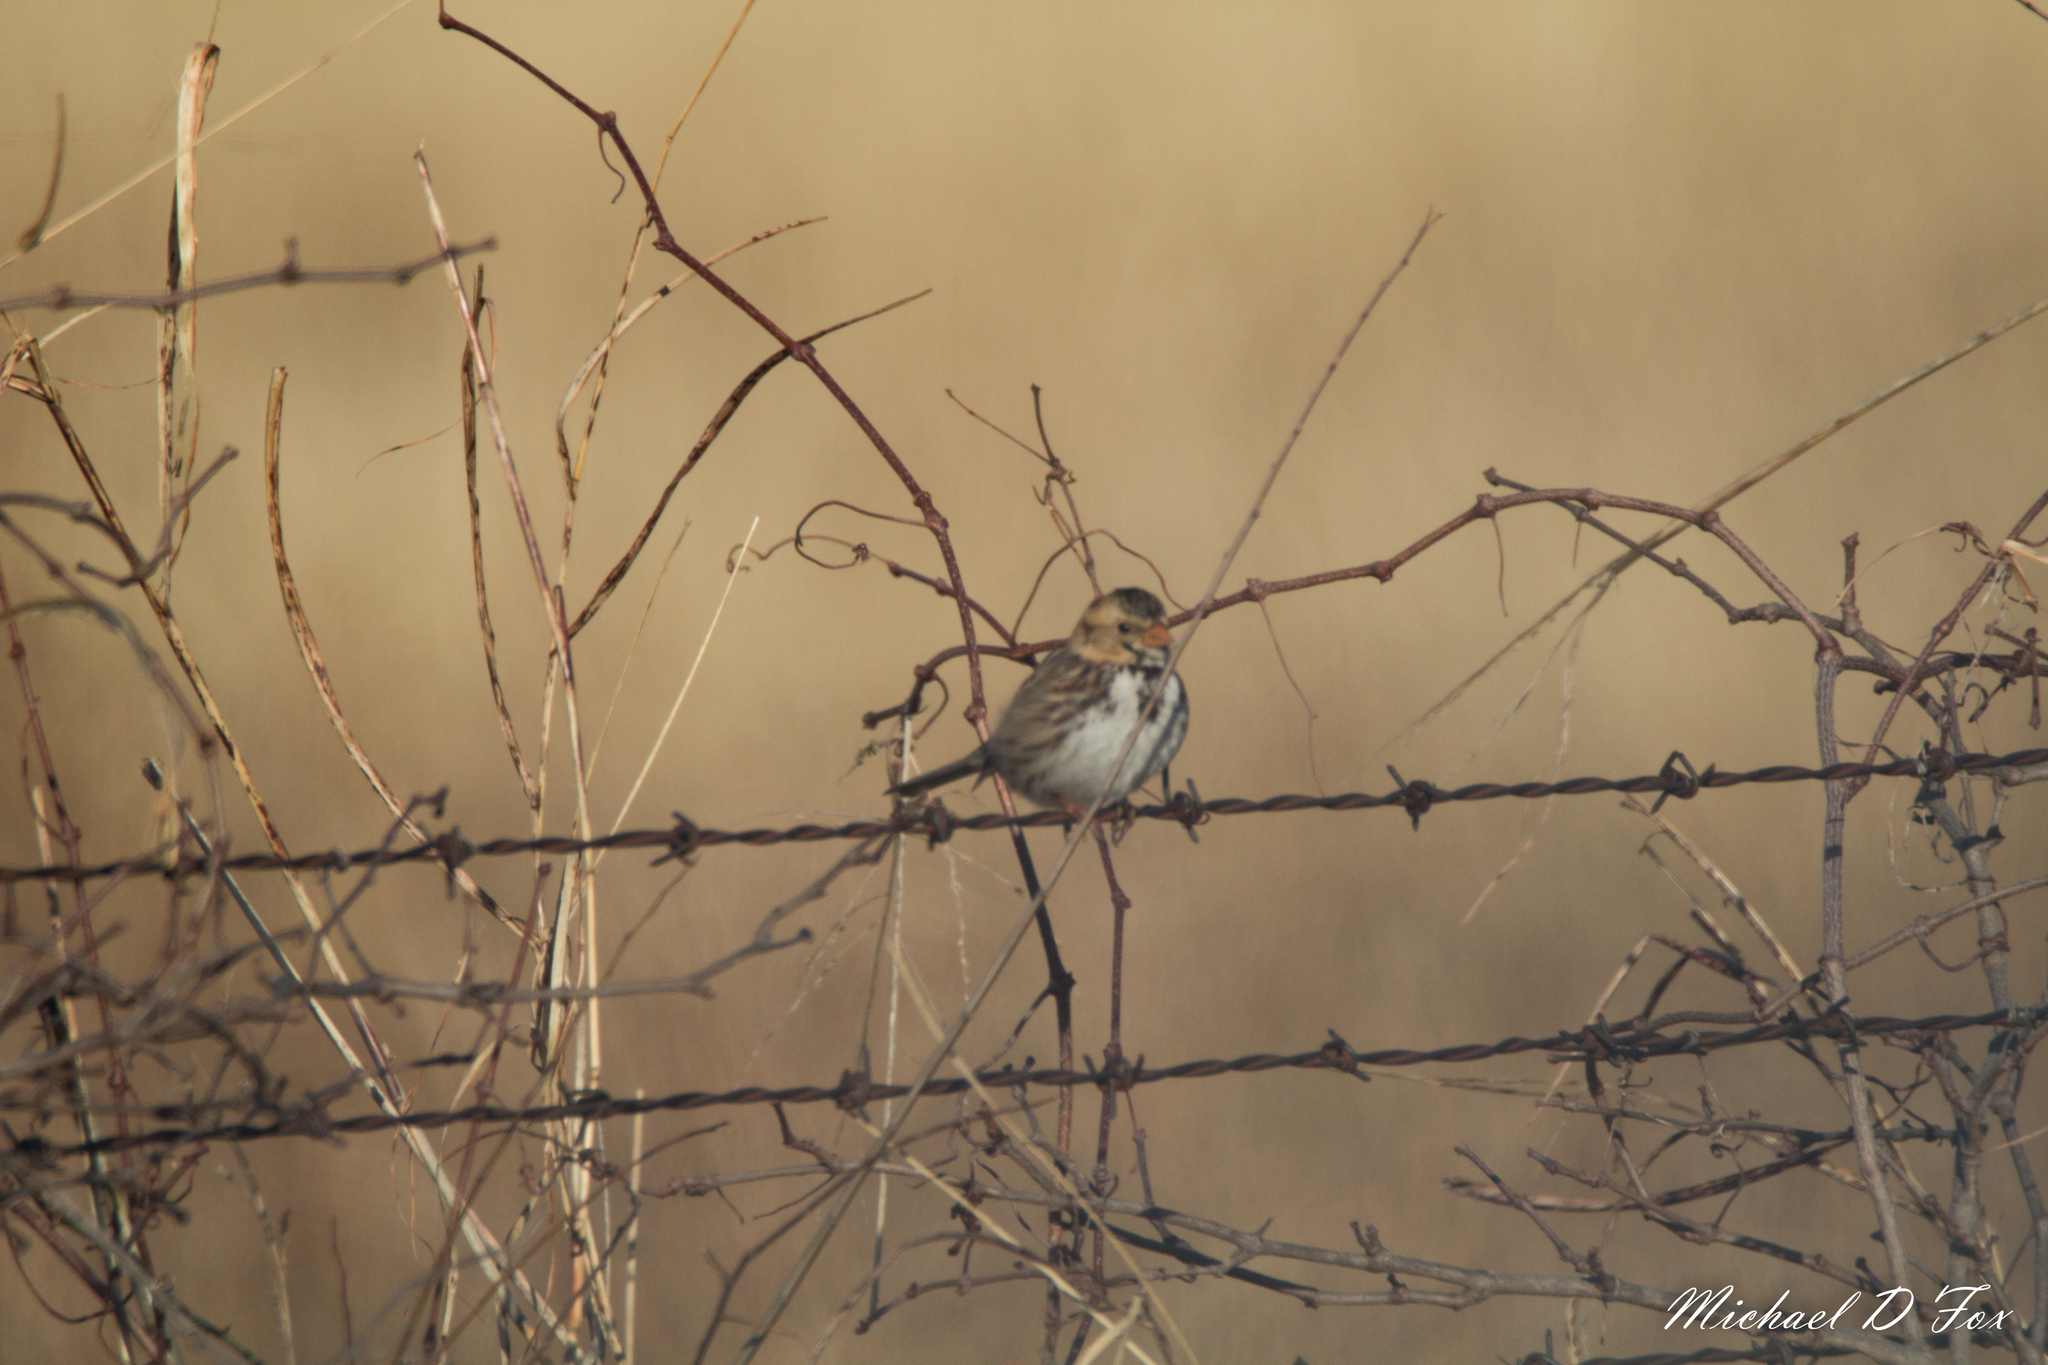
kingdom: Animalia
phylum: Chordata
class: Aves
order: Passeriformes
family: Passerellidae
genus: Zonotrichia
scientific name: Zonotrichia querula
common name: Harris's sparrow
